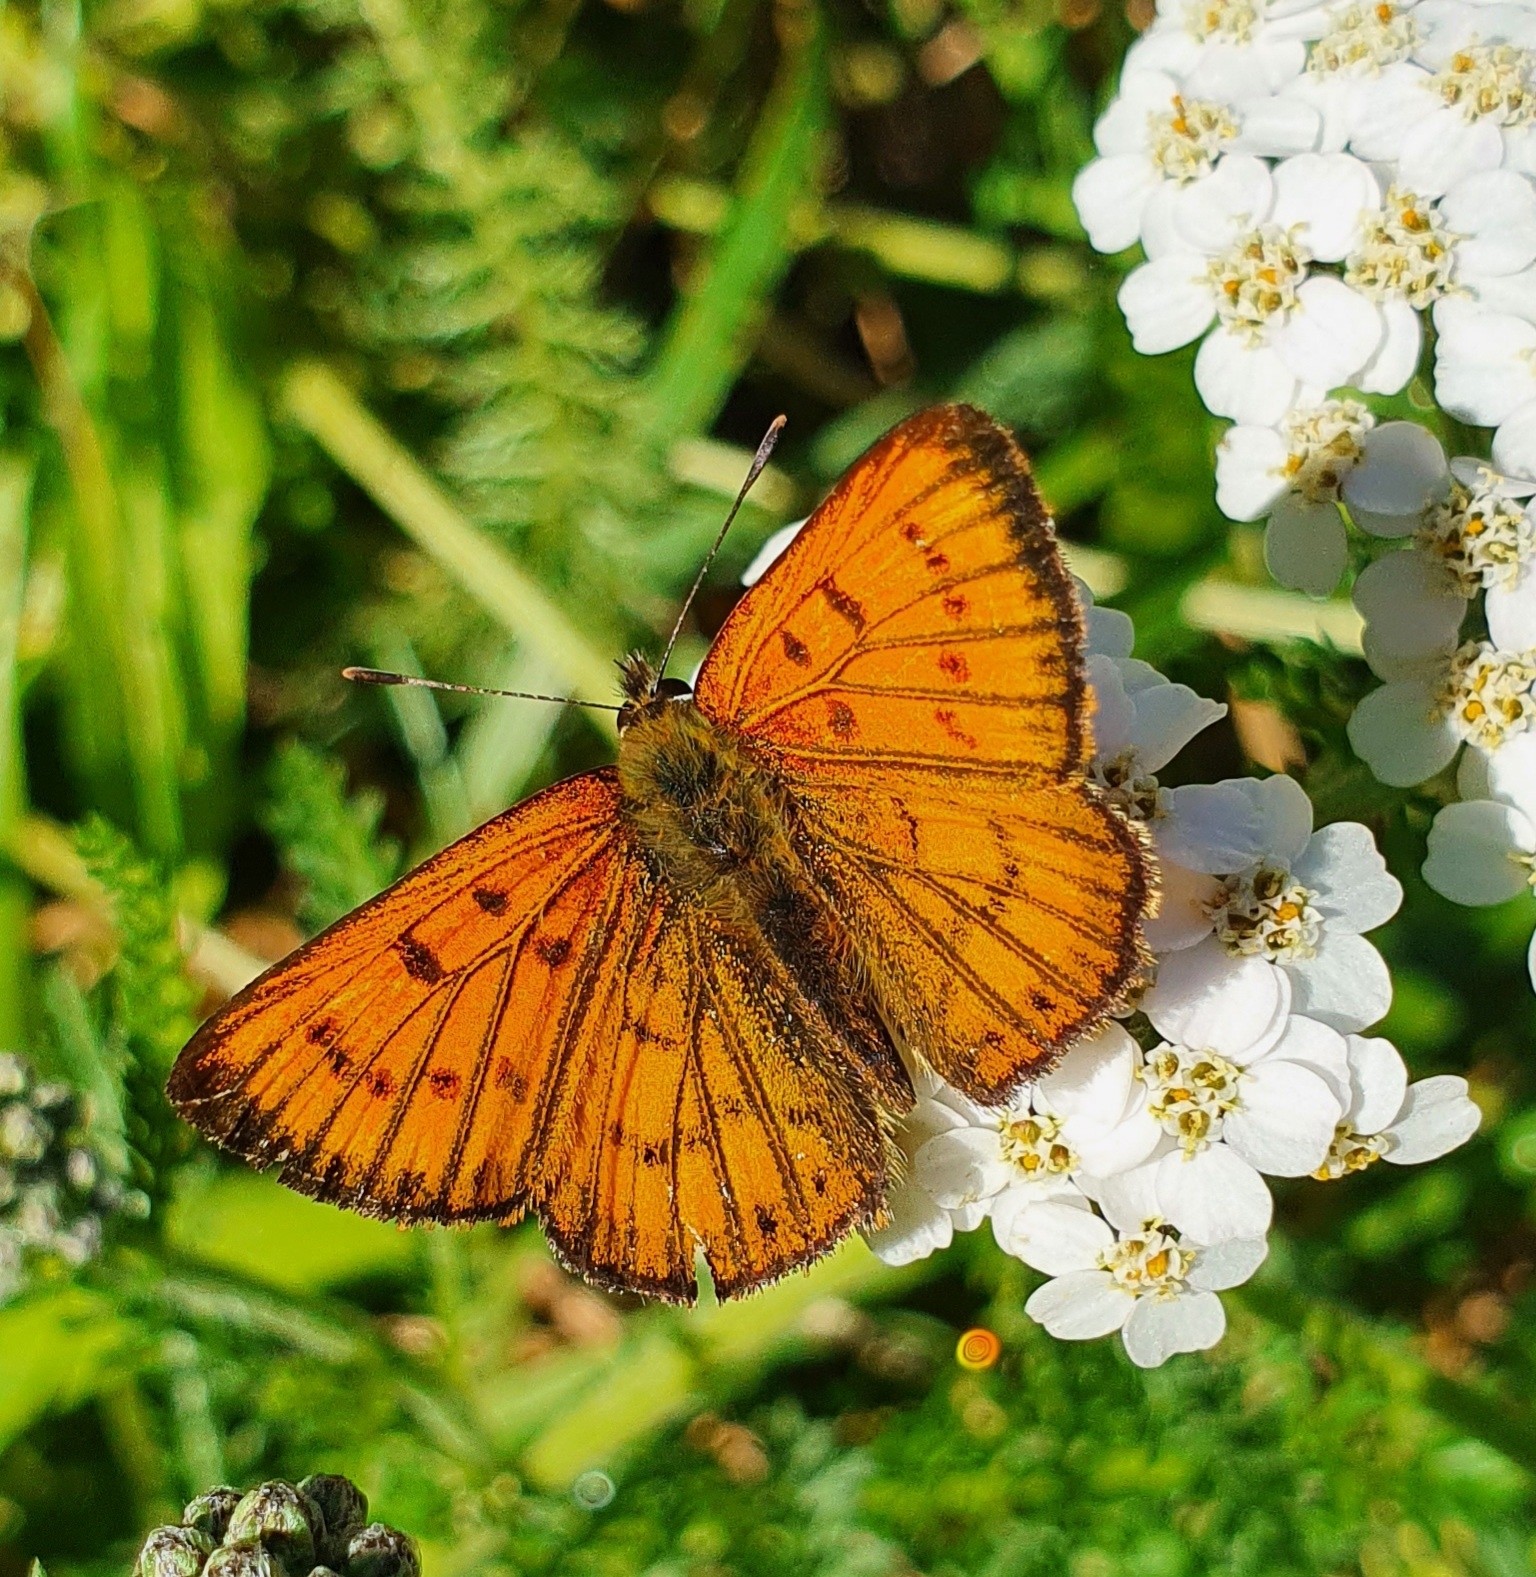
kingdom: Animalia
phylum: Arthropoda
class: Insecta
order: Lepidoptera
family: Lycaenidae
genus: Lycaena
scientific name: Lycaena salustius
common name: North island coastal copper
